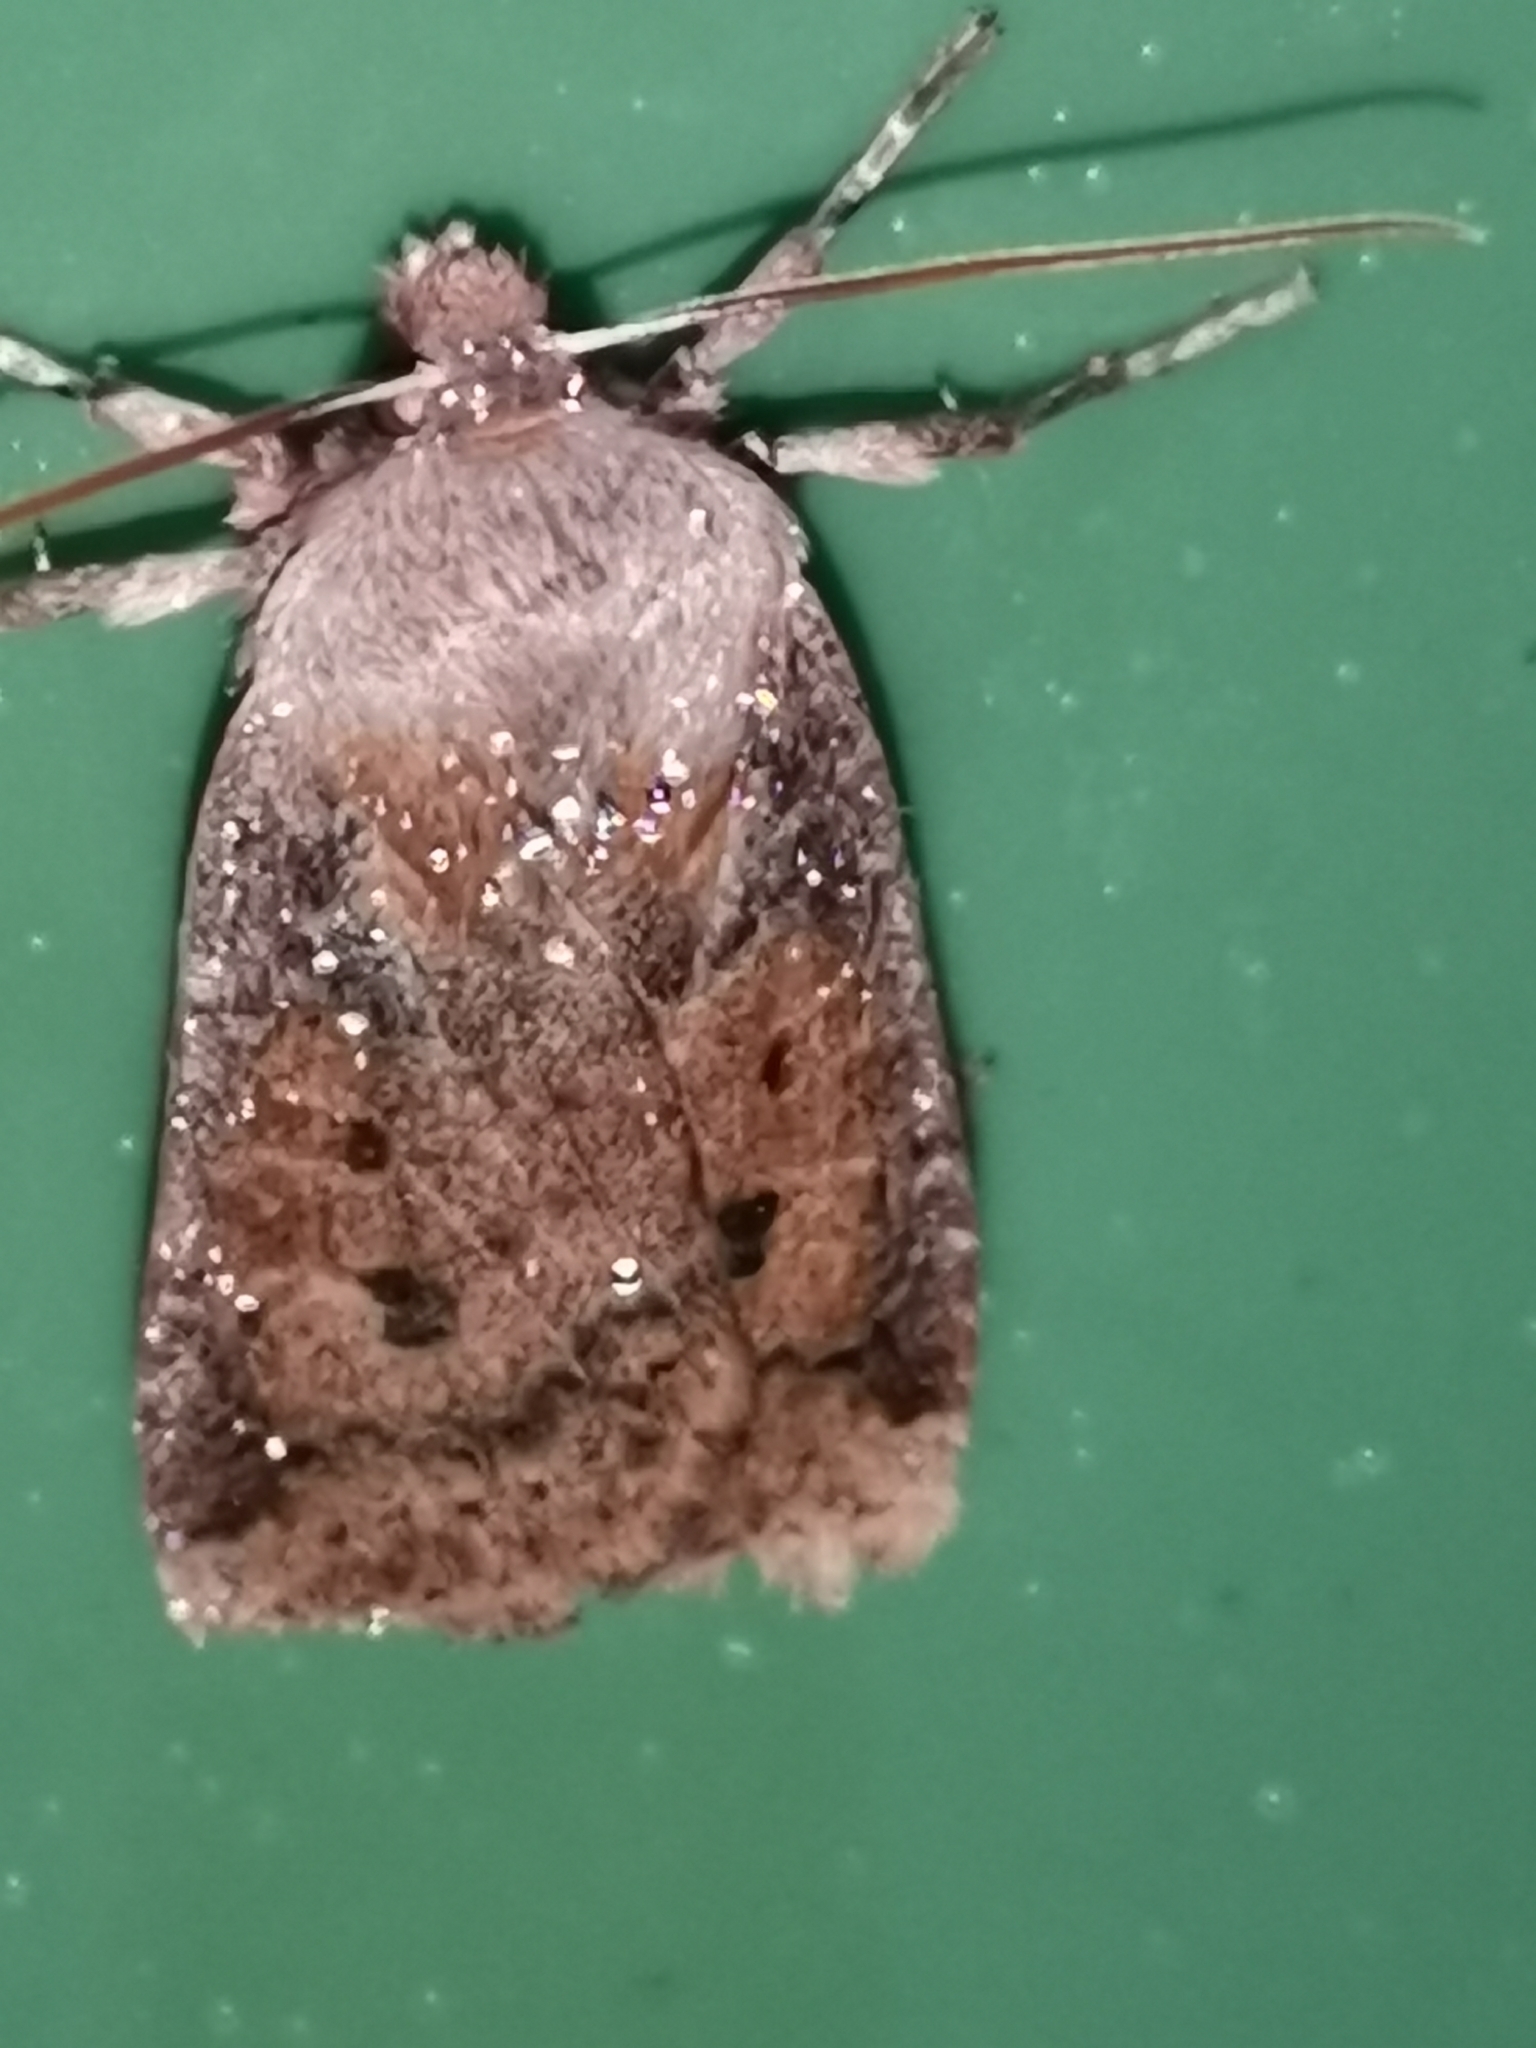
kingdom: Animalia
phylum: Arthropoda
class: Insecta
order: Lepidoptera
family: Noctuidae
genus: Conistra
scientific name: Conistra vaccinii
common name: Chestnut
